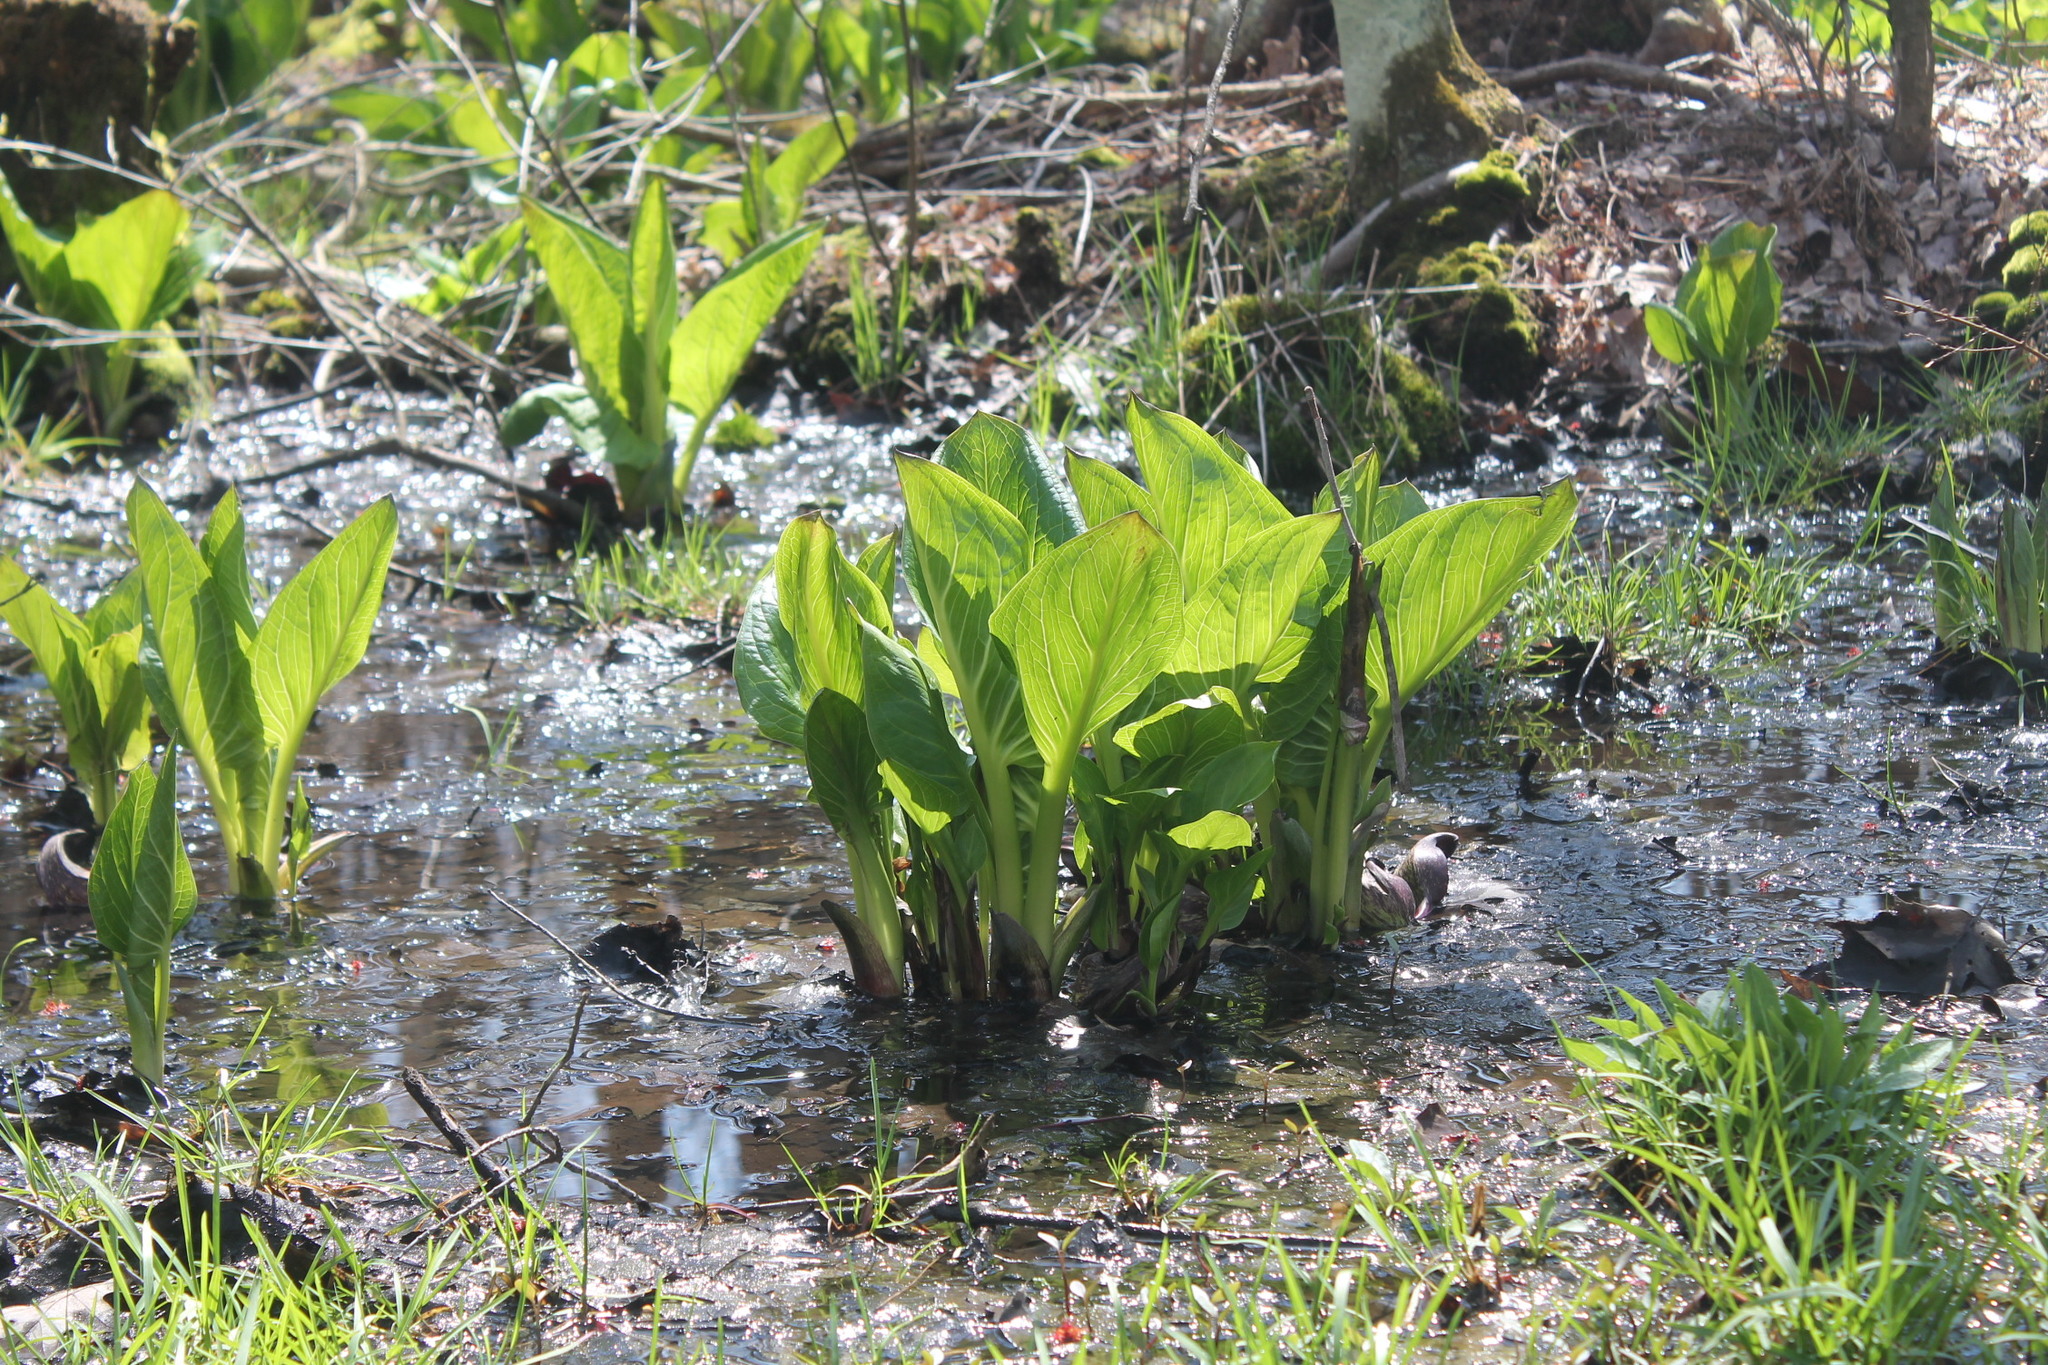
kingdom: Plantae
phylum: Tracheophyta
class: Liliopsida
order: Alismatales
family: Araceae
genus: Symplocarpus
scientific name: Symplocarpus foetidus
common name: Eastern skunk cabbage
